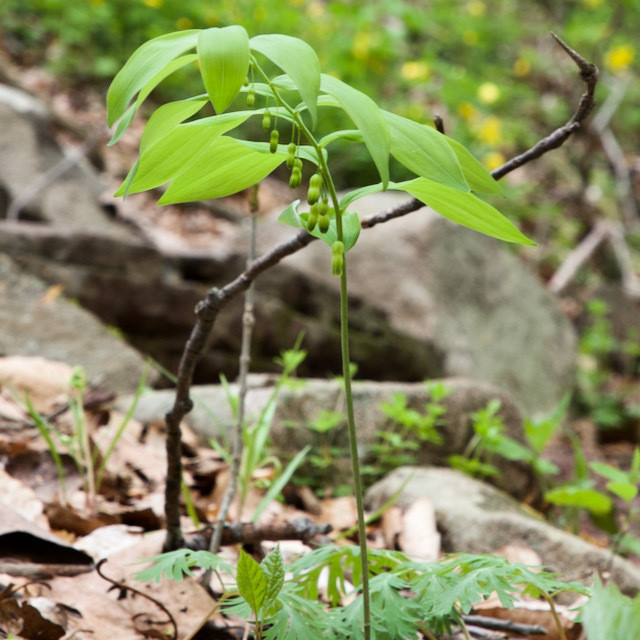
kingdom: Plantae
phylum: Tracheophyta
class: Liliopsida
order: Asparagales
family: Asparagaceae
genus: Polygonatum
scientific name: Polygonatum pubescens
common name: Downy solomon's seal
